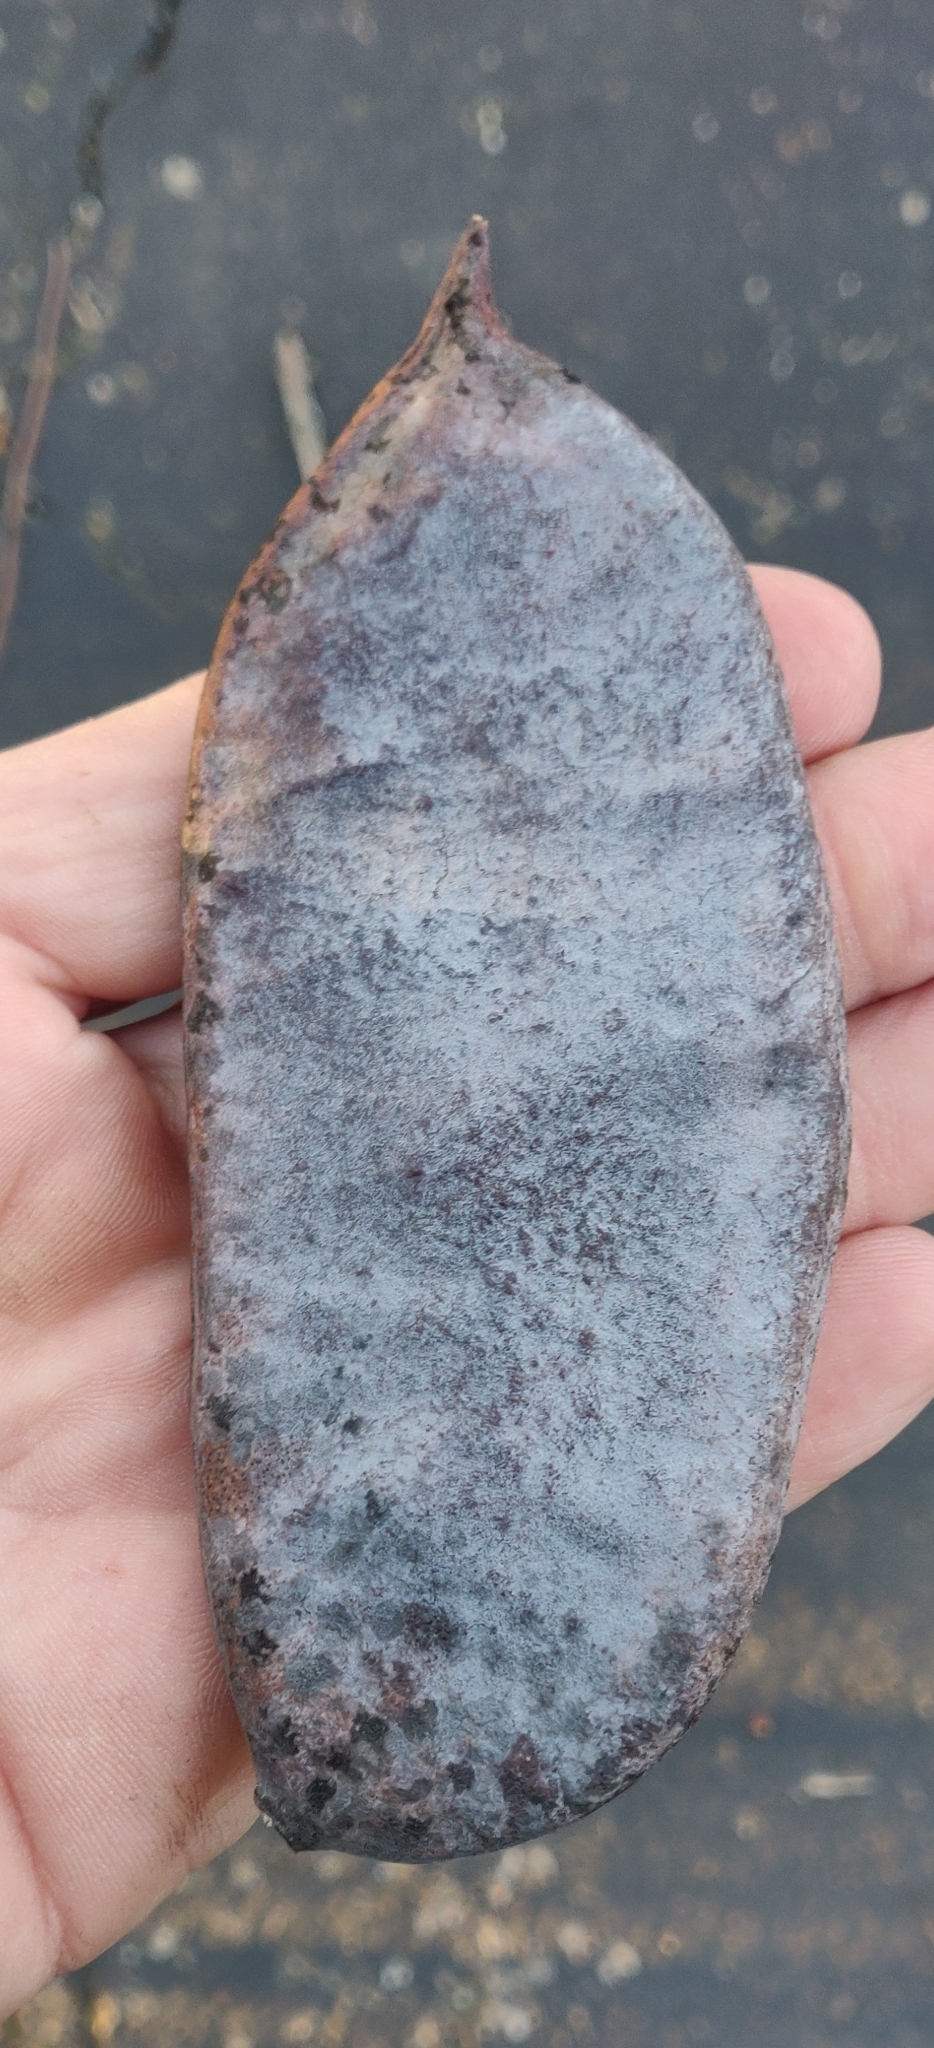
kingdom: Plantae
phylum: Tracheophyta
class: Magnoliopsida
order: Fabales
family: Fabaceae
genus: Gymnocladus
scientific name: Gymnocladus dioicus
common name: Kentucky coffee-tree
